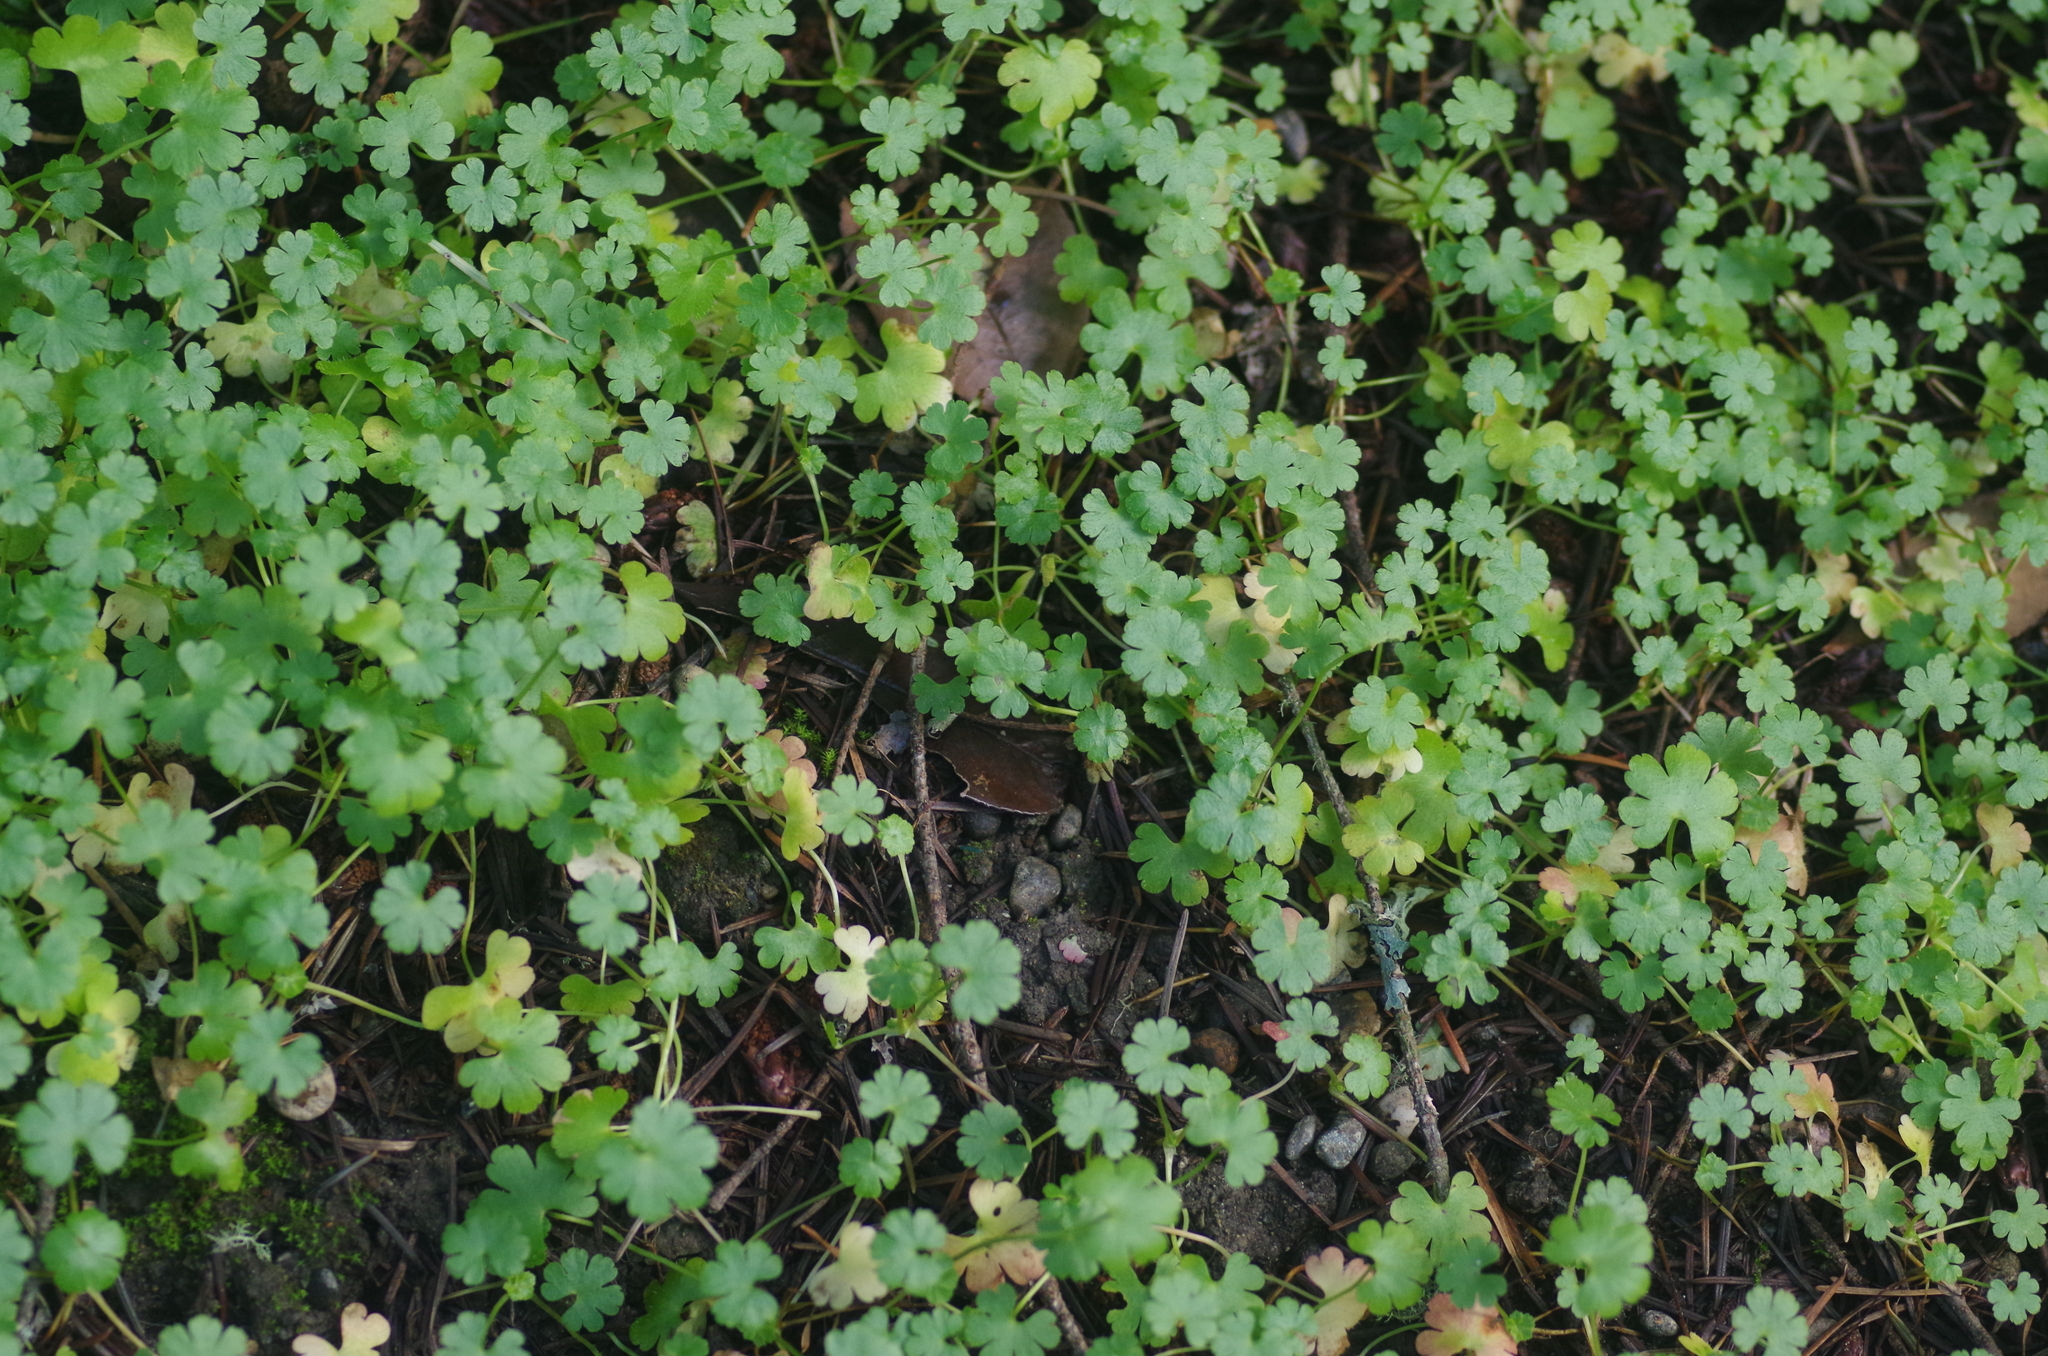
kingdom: Plantae
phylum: Tracheophyta
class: Magnoliopsida
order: Geraniales
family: Geraniaceae
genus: Geranium
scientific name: Geranium lucidum
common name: Shining crane's-bill
